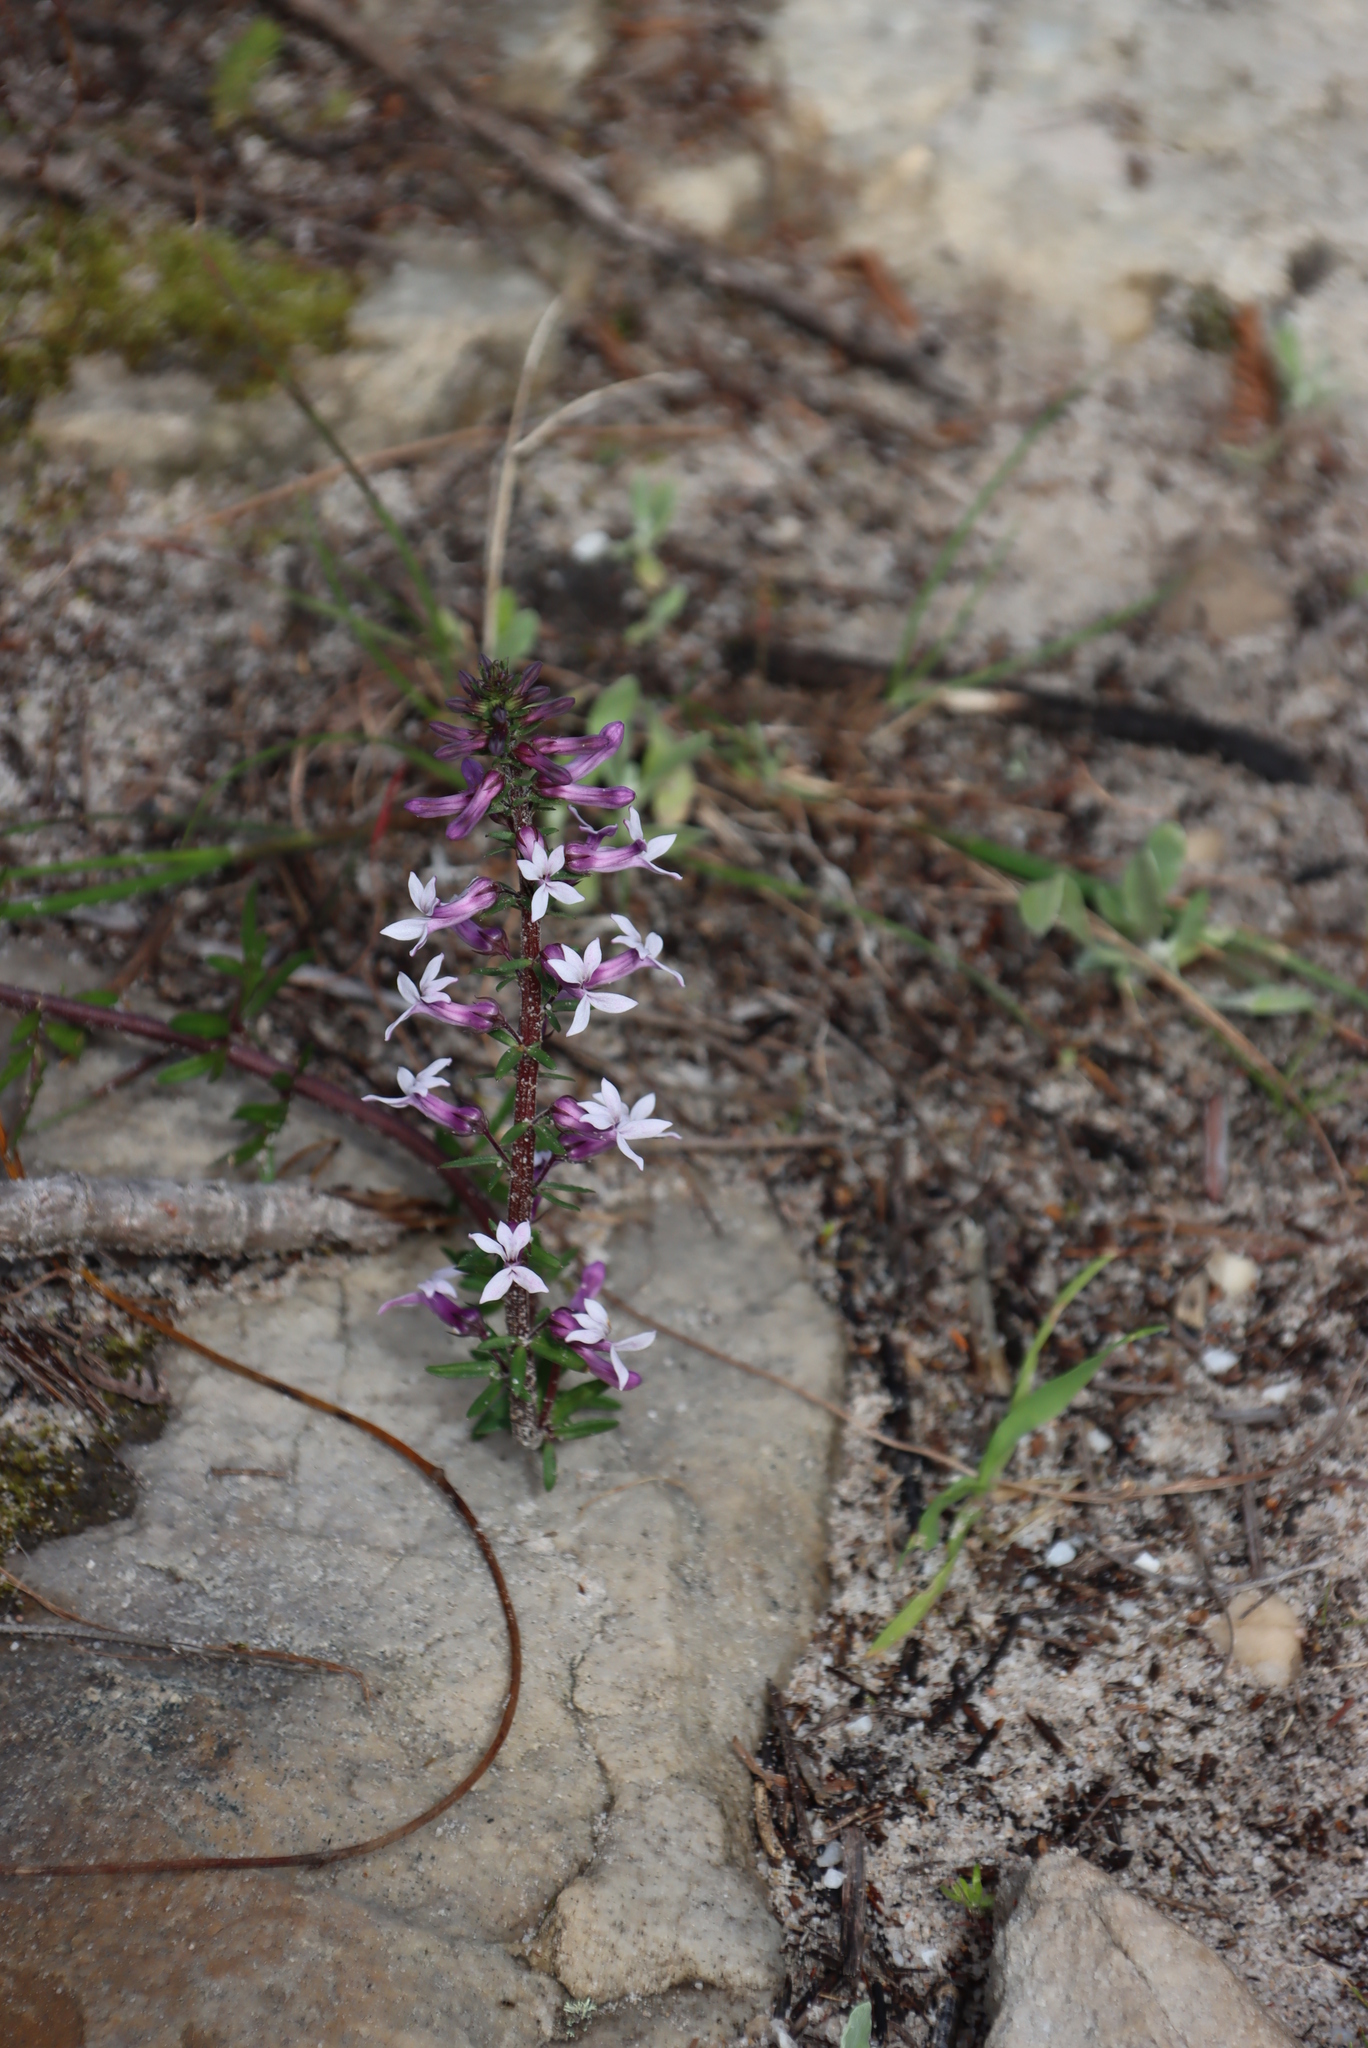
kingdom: Plantae
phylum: Tracheophyta
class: Magnoliopsida
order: Asterales
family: Campanulaceae
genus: Cyphia
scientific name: Cyphia bulbosa
